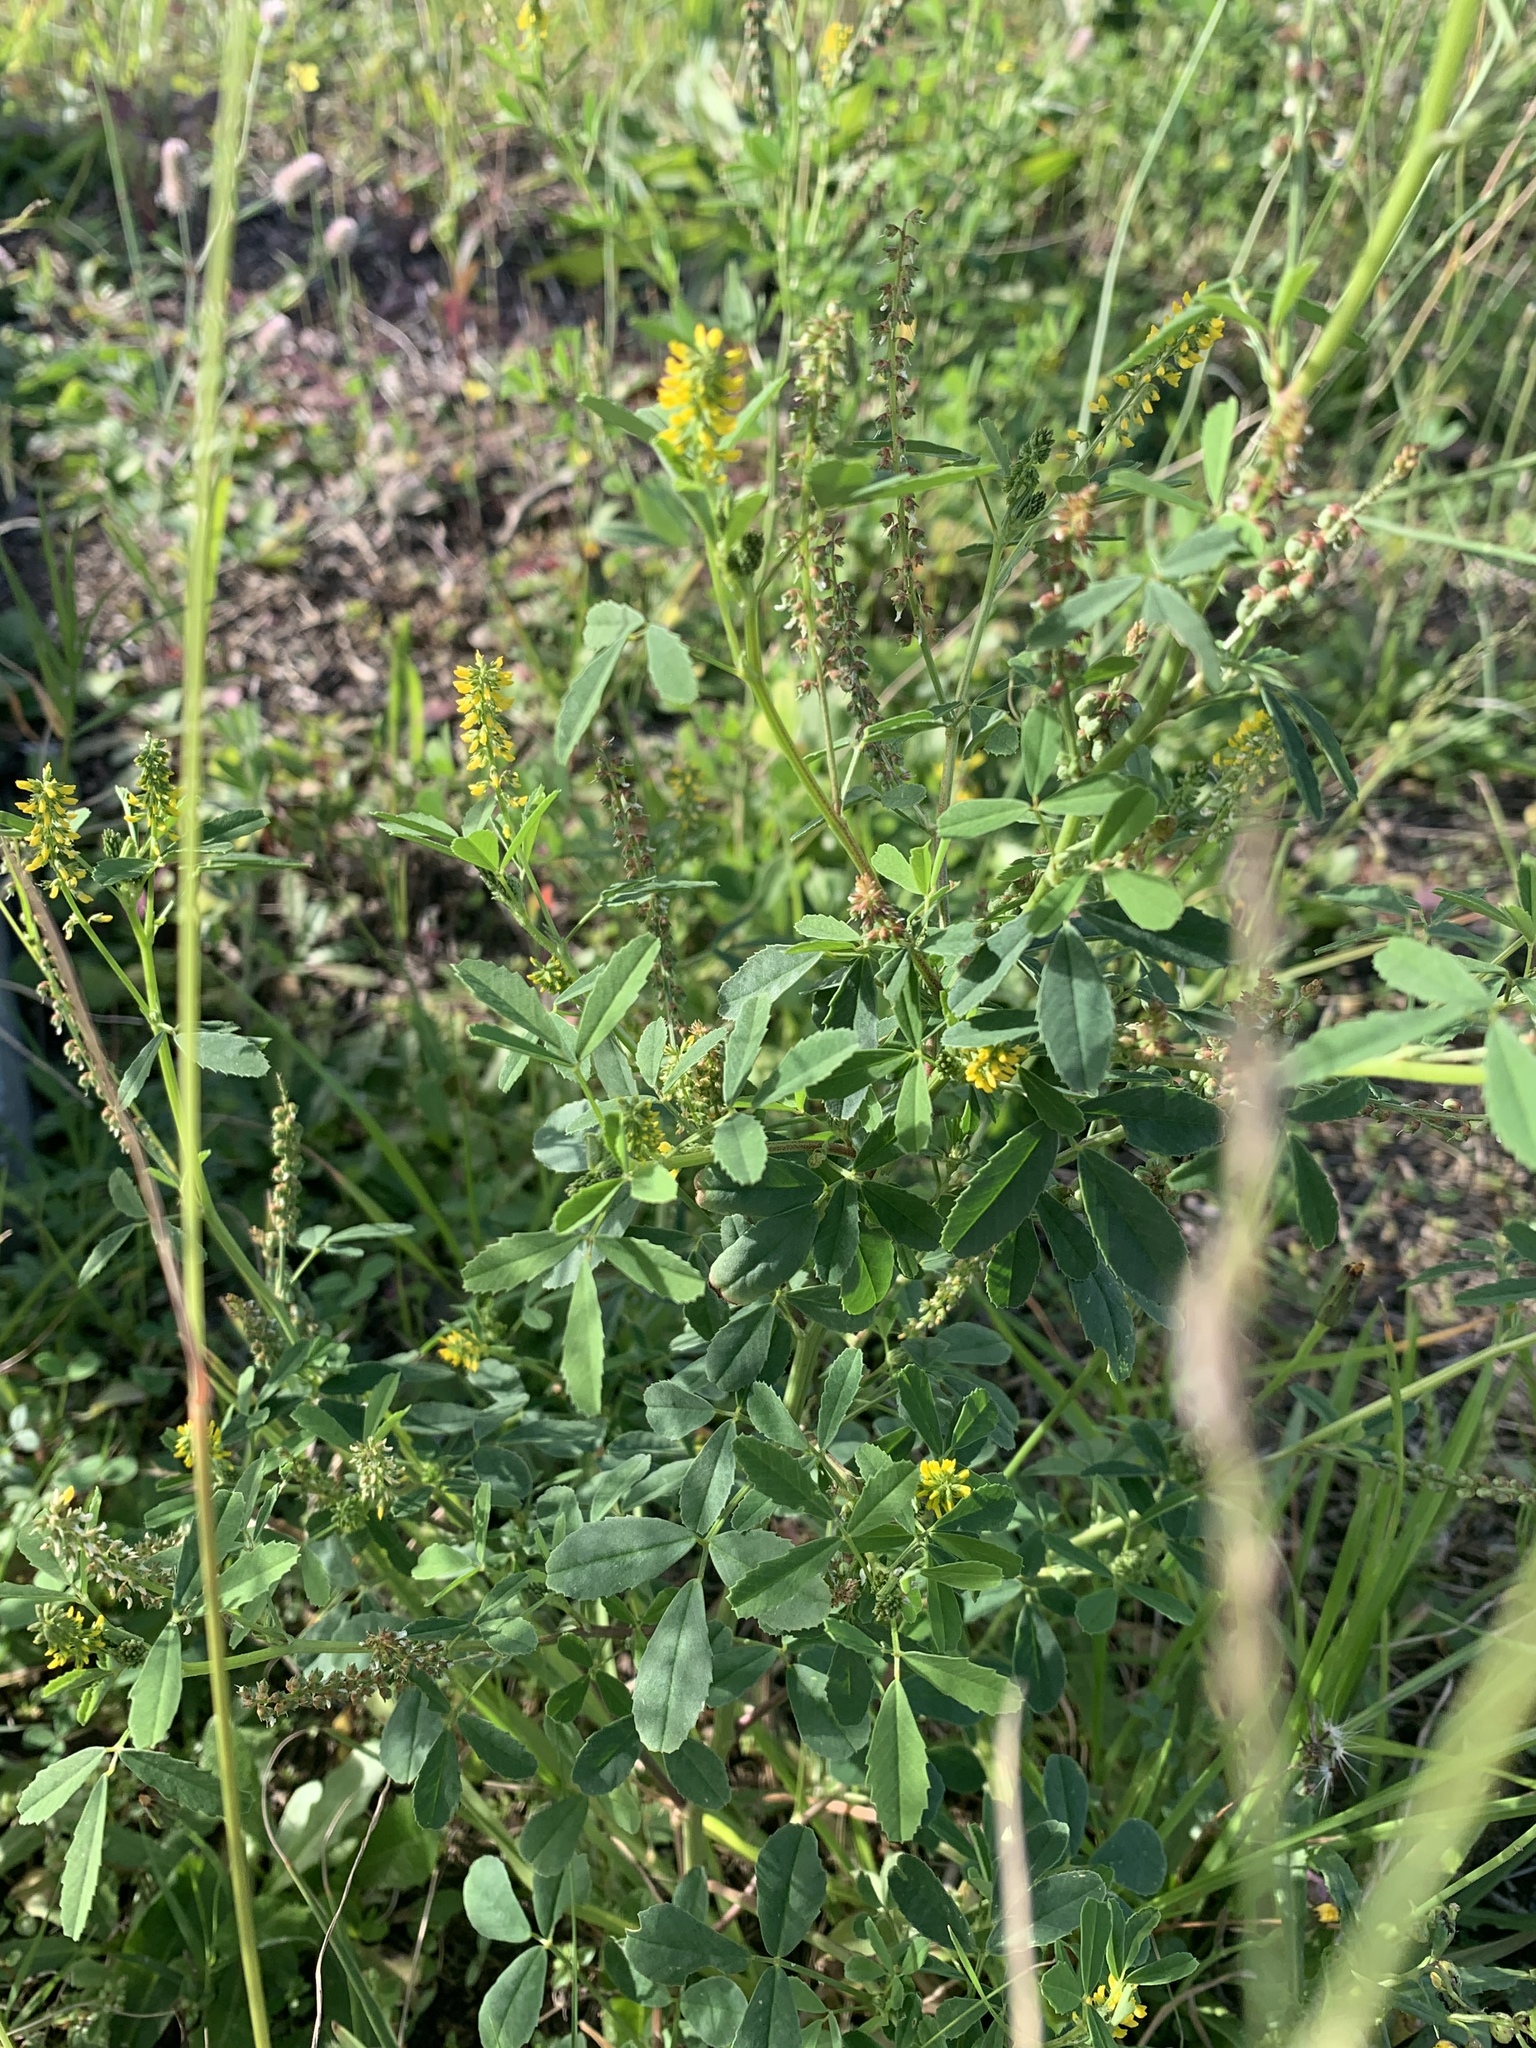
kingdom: Plantae
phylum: Tracheophyta
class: Magnoliopsida
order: Fabales
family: Fabaceae
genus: Melilotus
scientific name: Melilotus indicus
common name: Small melilot
